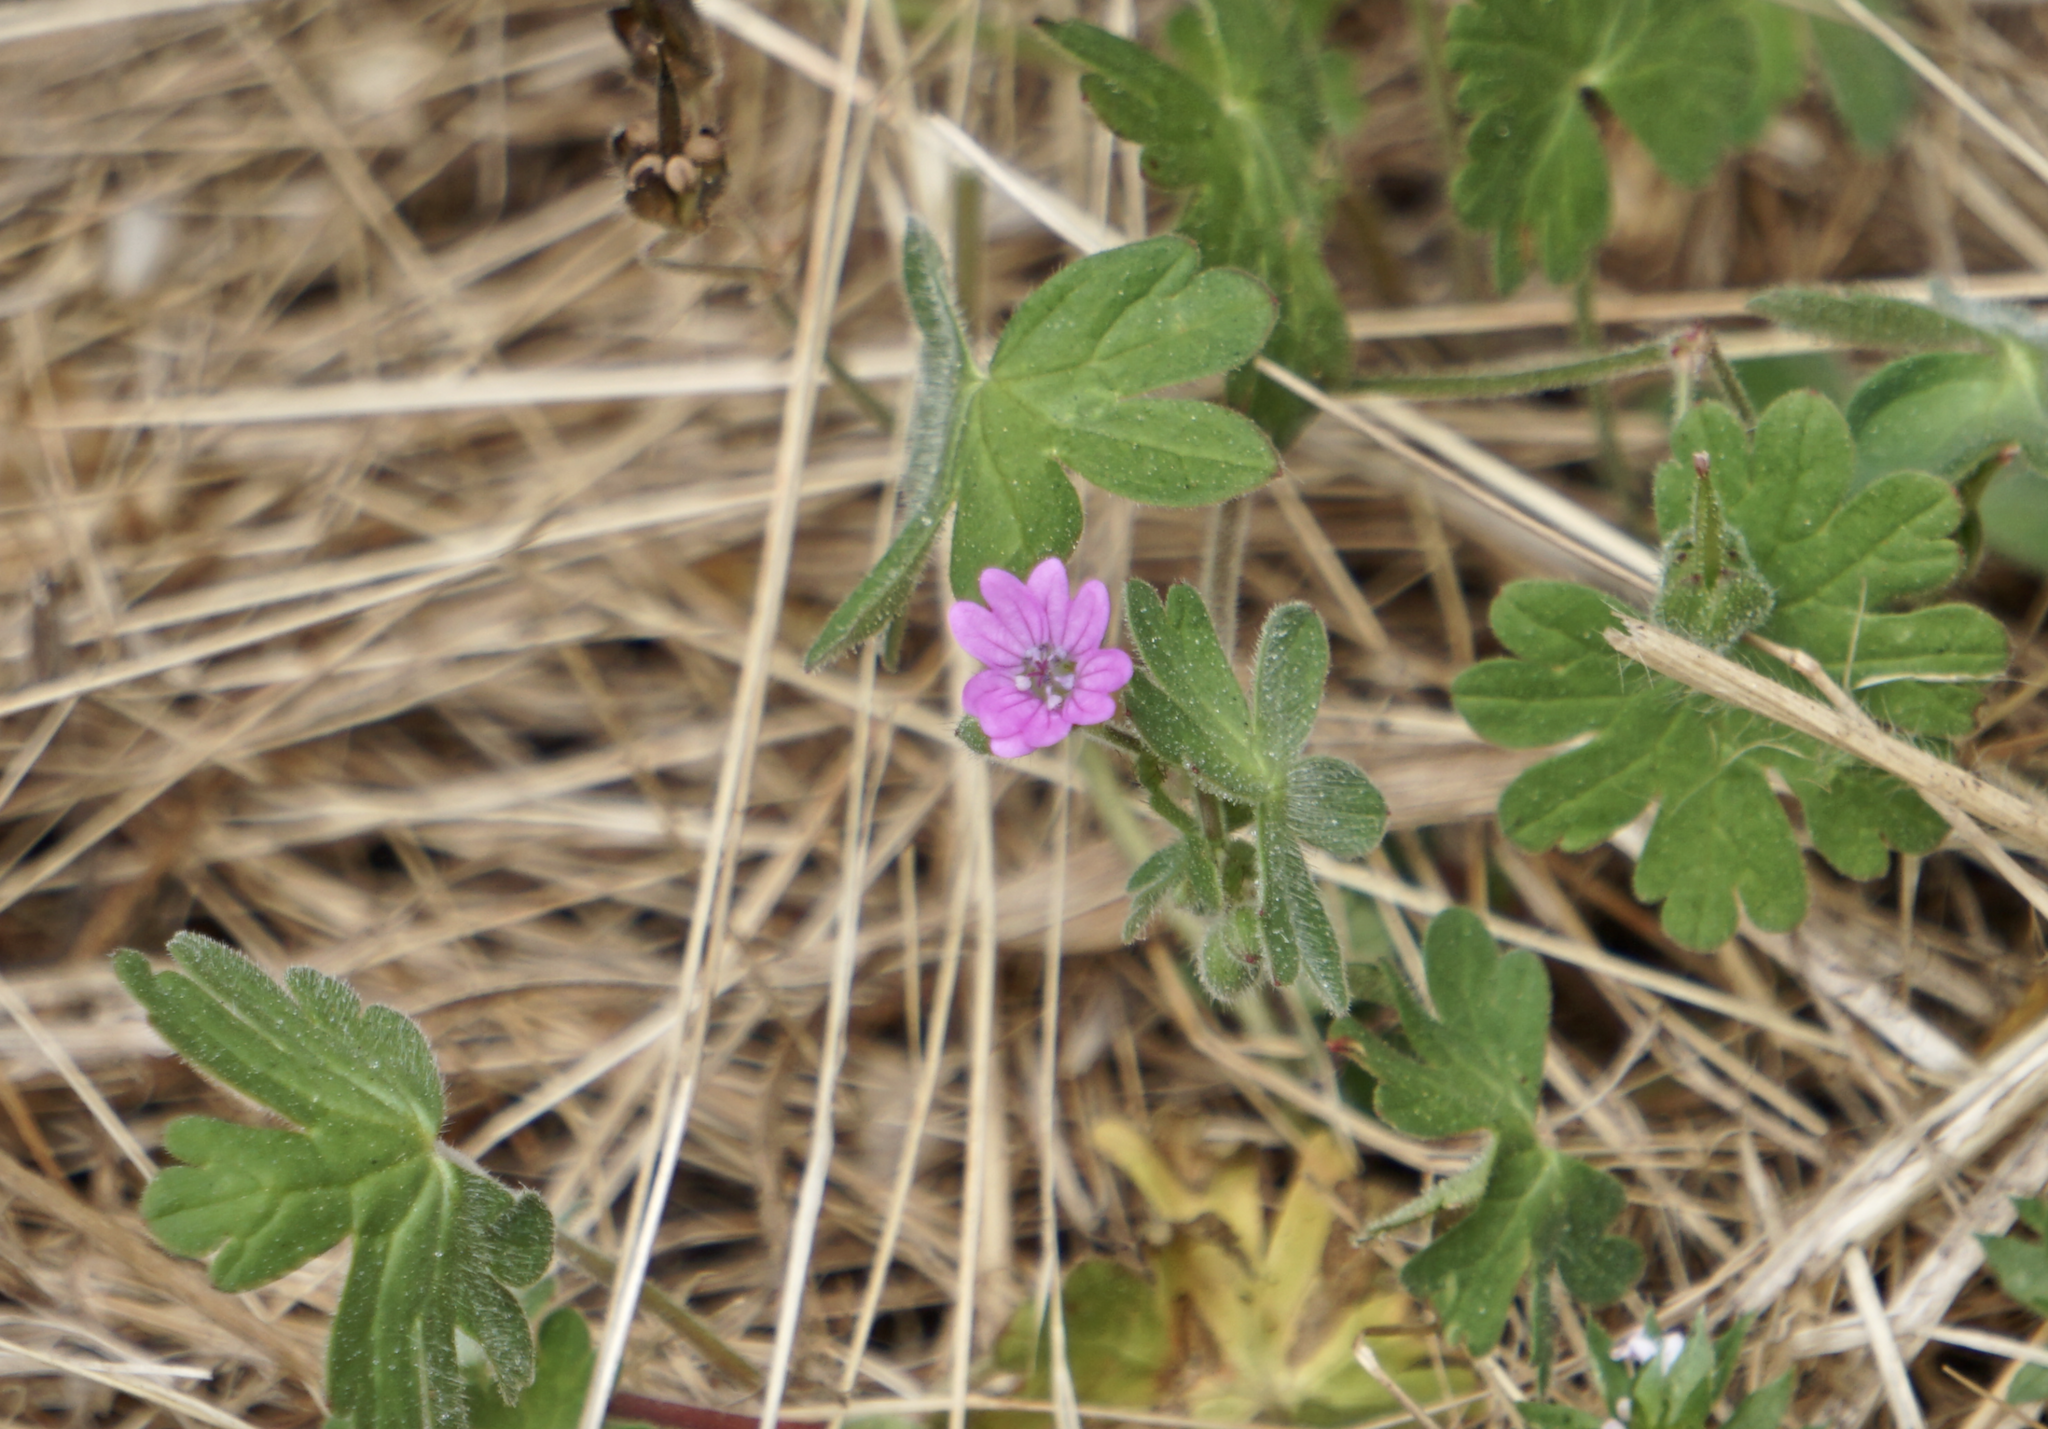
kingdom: Plantae
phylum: Tracheophyta
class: Magnoliopsida
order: Geraniales
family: Geraniaceae
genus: Geranium
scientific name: Geranium molle
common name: Dove's-foot crane's-bill
